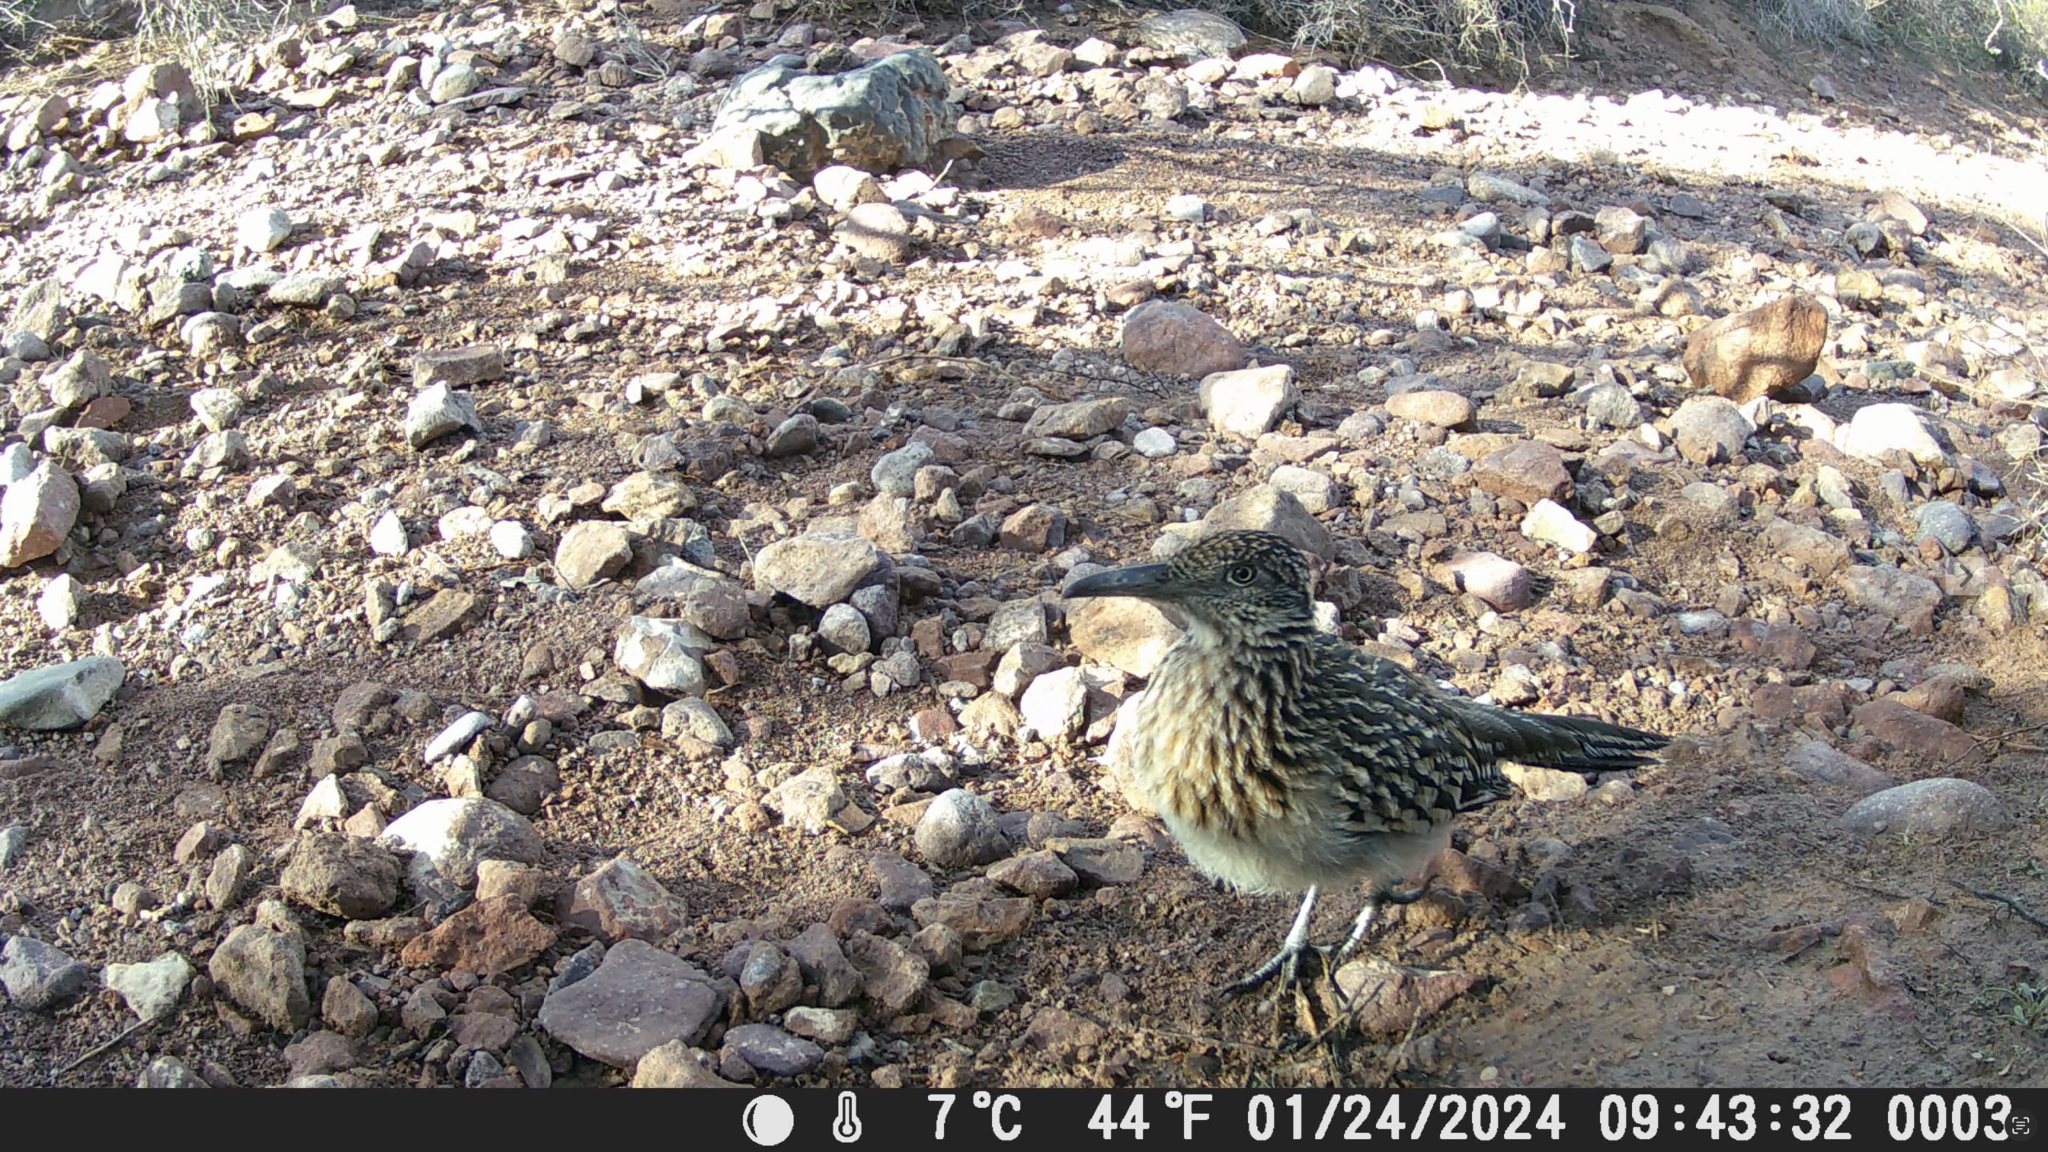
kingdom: Animalia
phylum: Chordata
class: Aves
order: Cuculiformes
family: Cuculidae
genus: Geococcyx
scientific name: Geococcyx californianus
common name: Greater roadrunner
